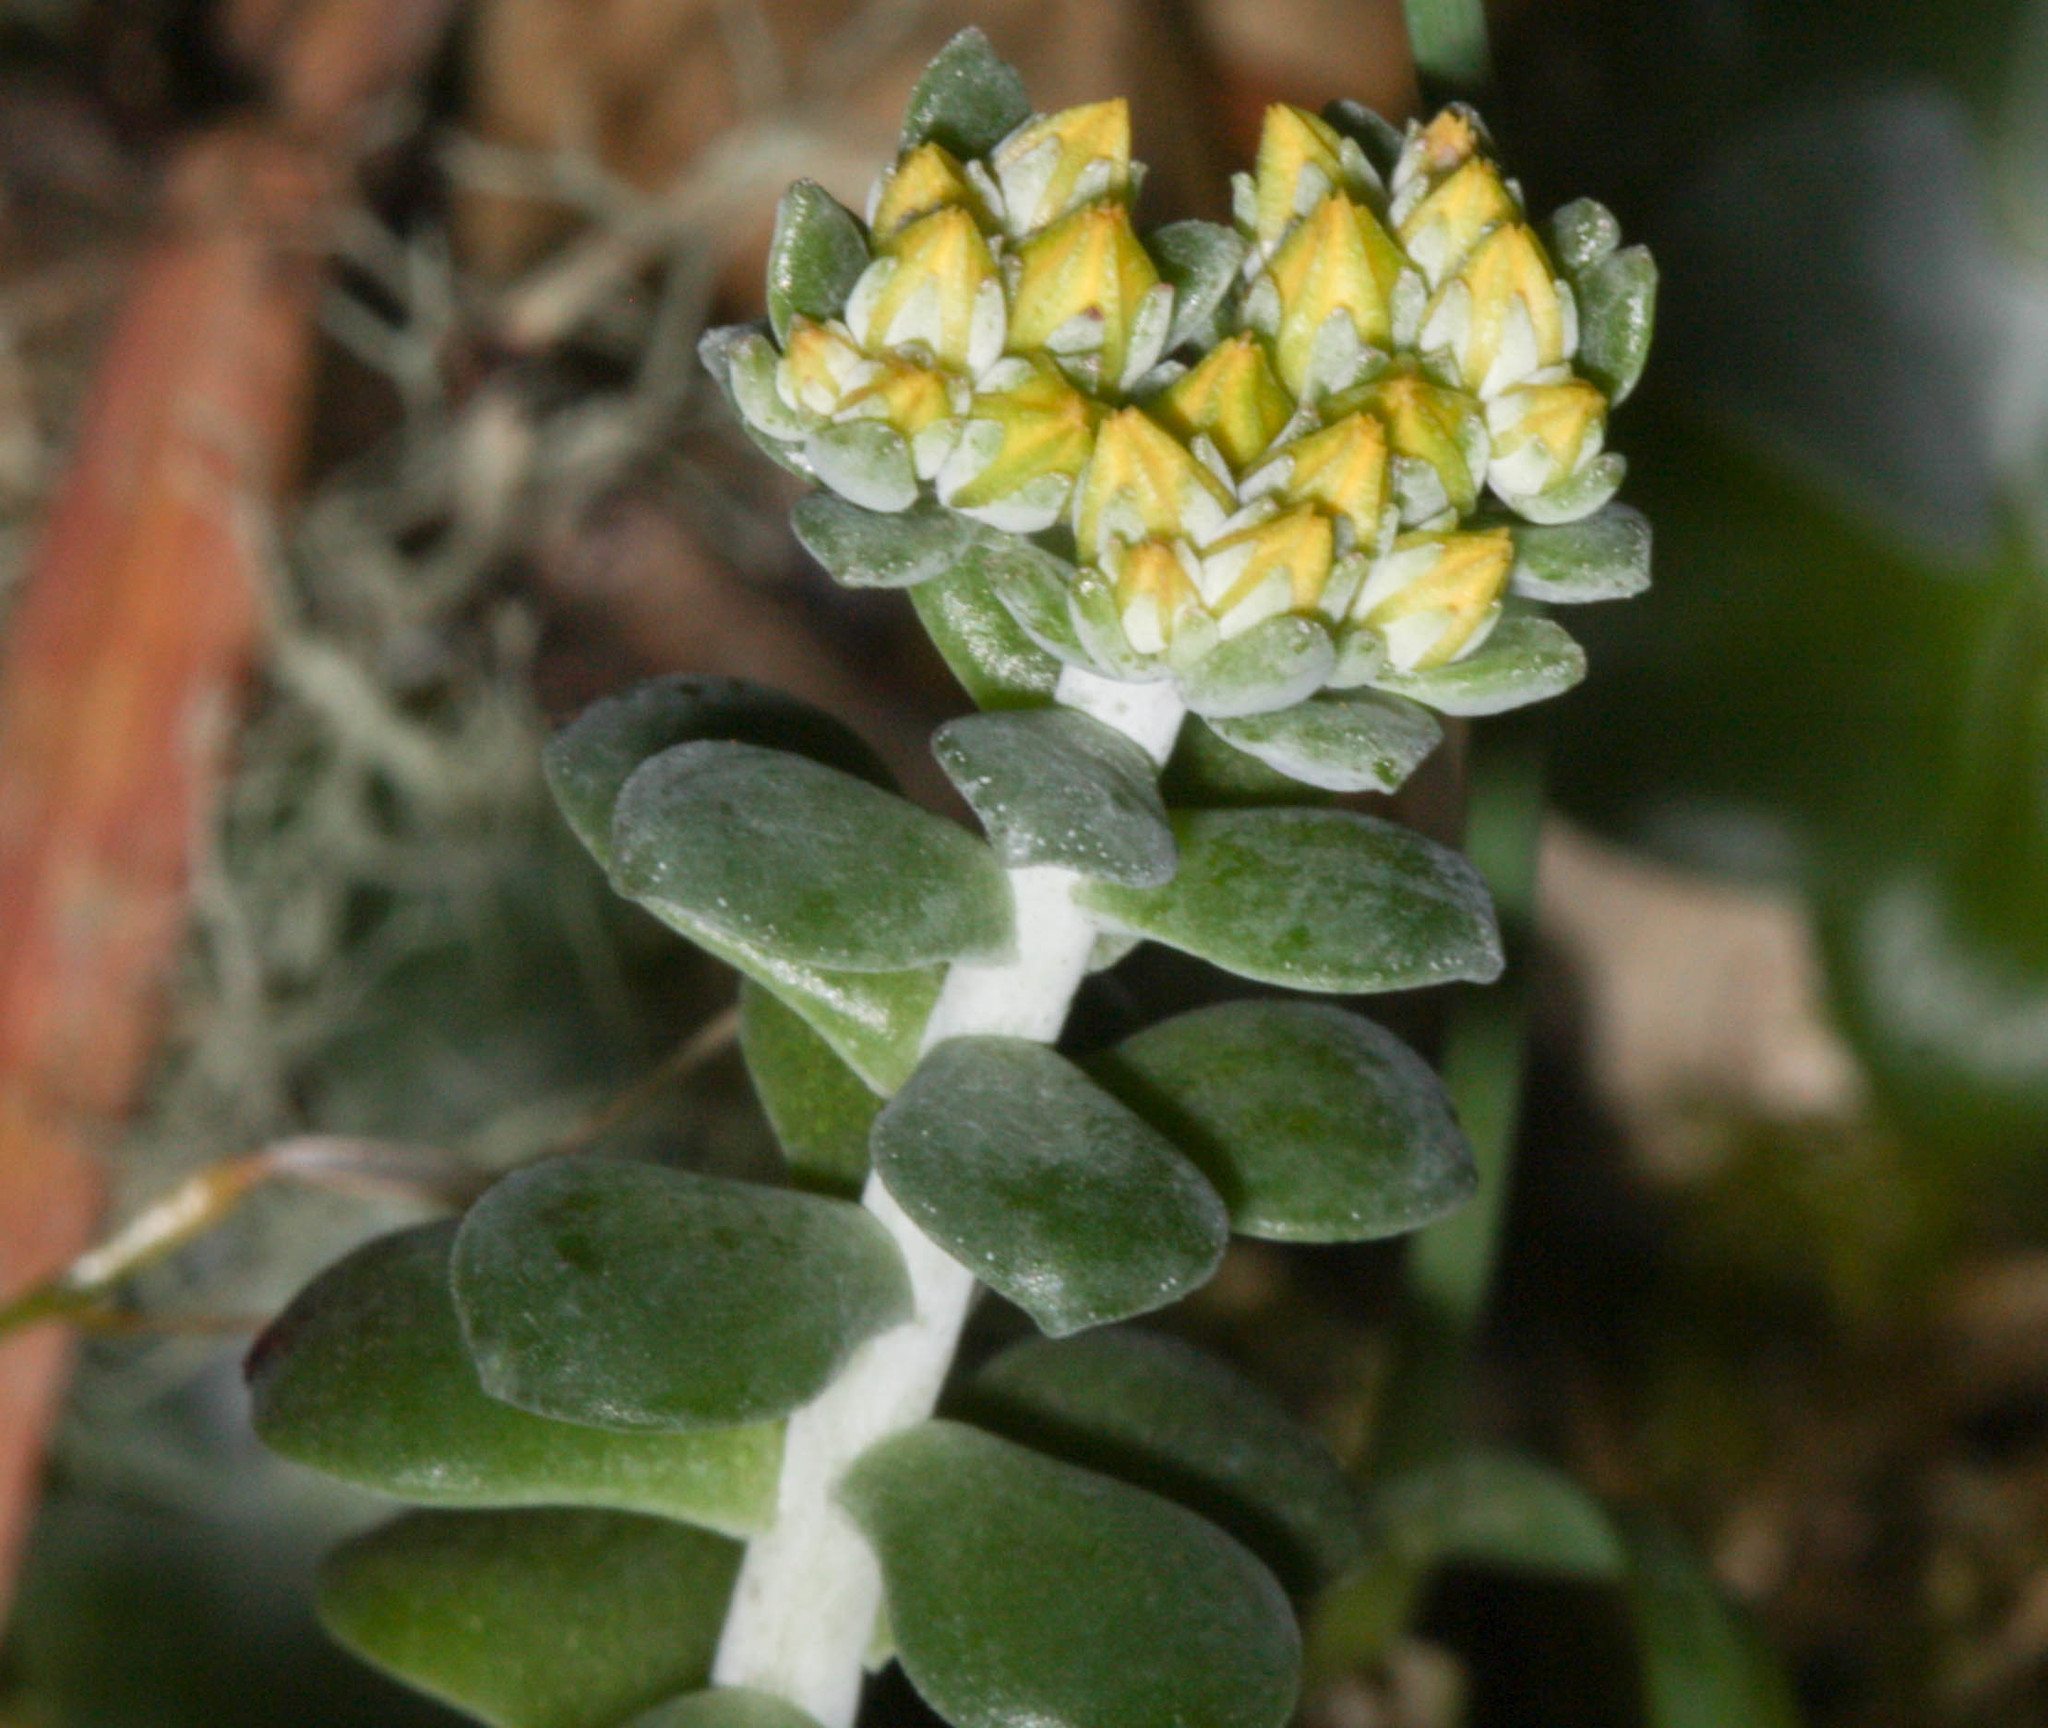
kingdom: Plantae
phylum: Tracheophyta
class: Magnoliopsida
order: Saxifragales
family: Crassulaceae
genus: Sedum
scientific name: Sedum spathulifolium
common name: Colorado stonecrop
